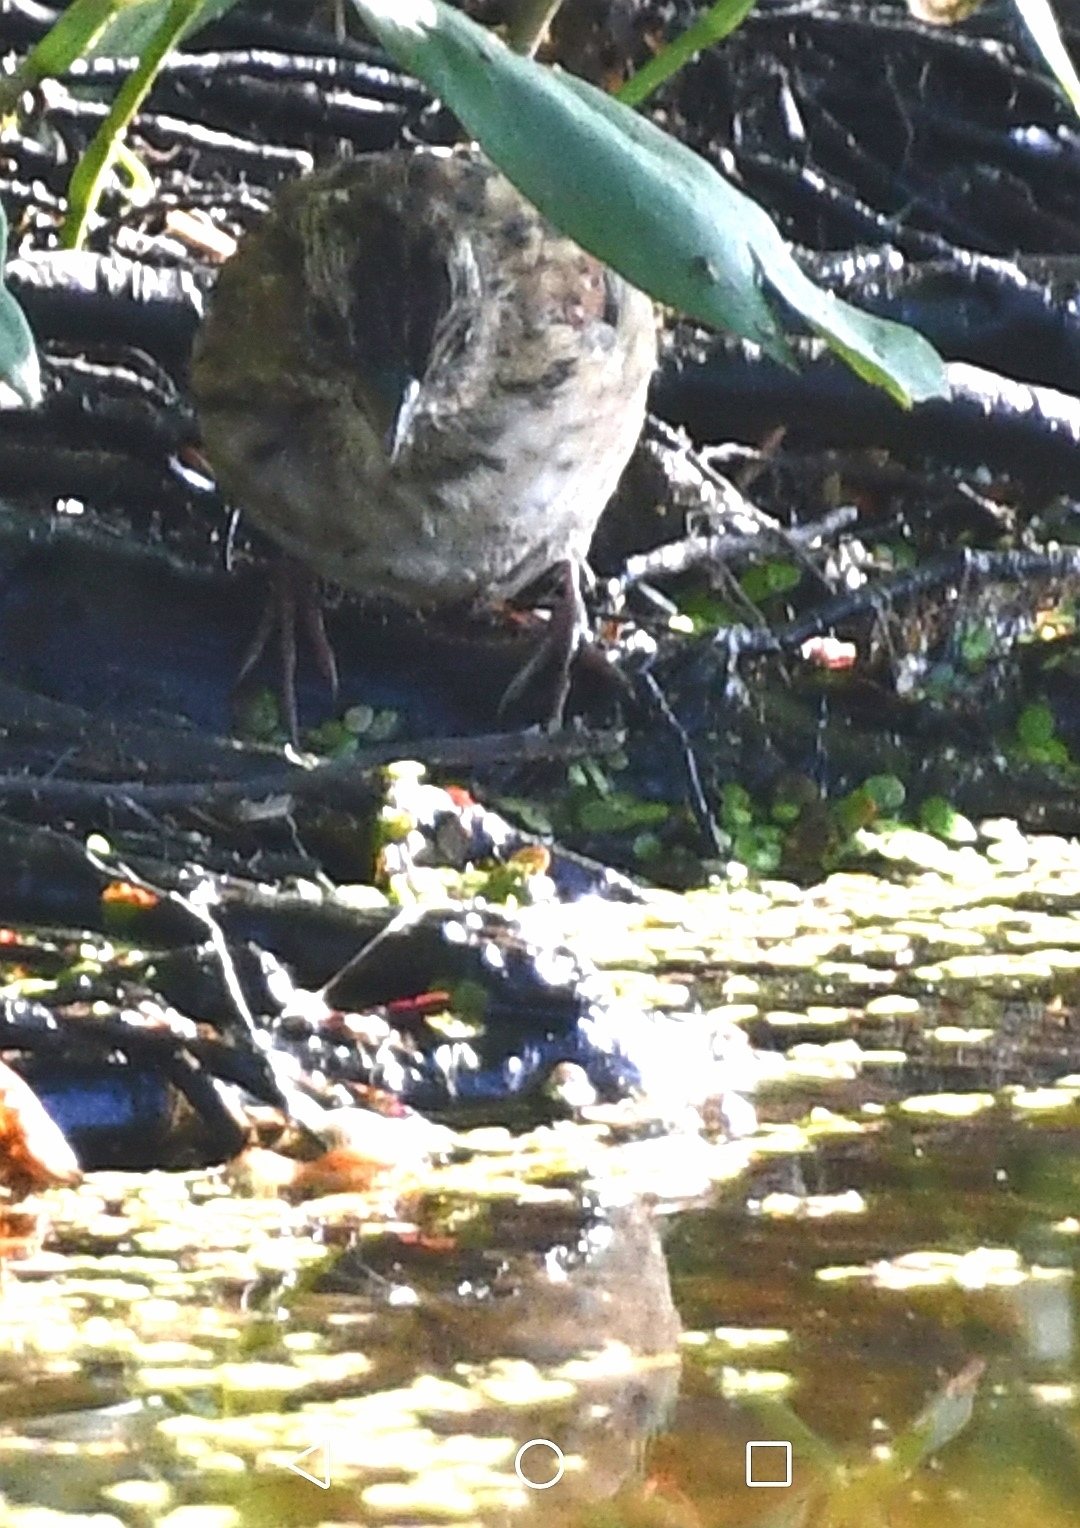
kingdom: Animalia
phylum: Chordata
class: Aves
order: Passeriformes
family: Passerellidae
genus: Melospiza
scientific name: Melospiza georgiana
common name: Swamp sparrow
